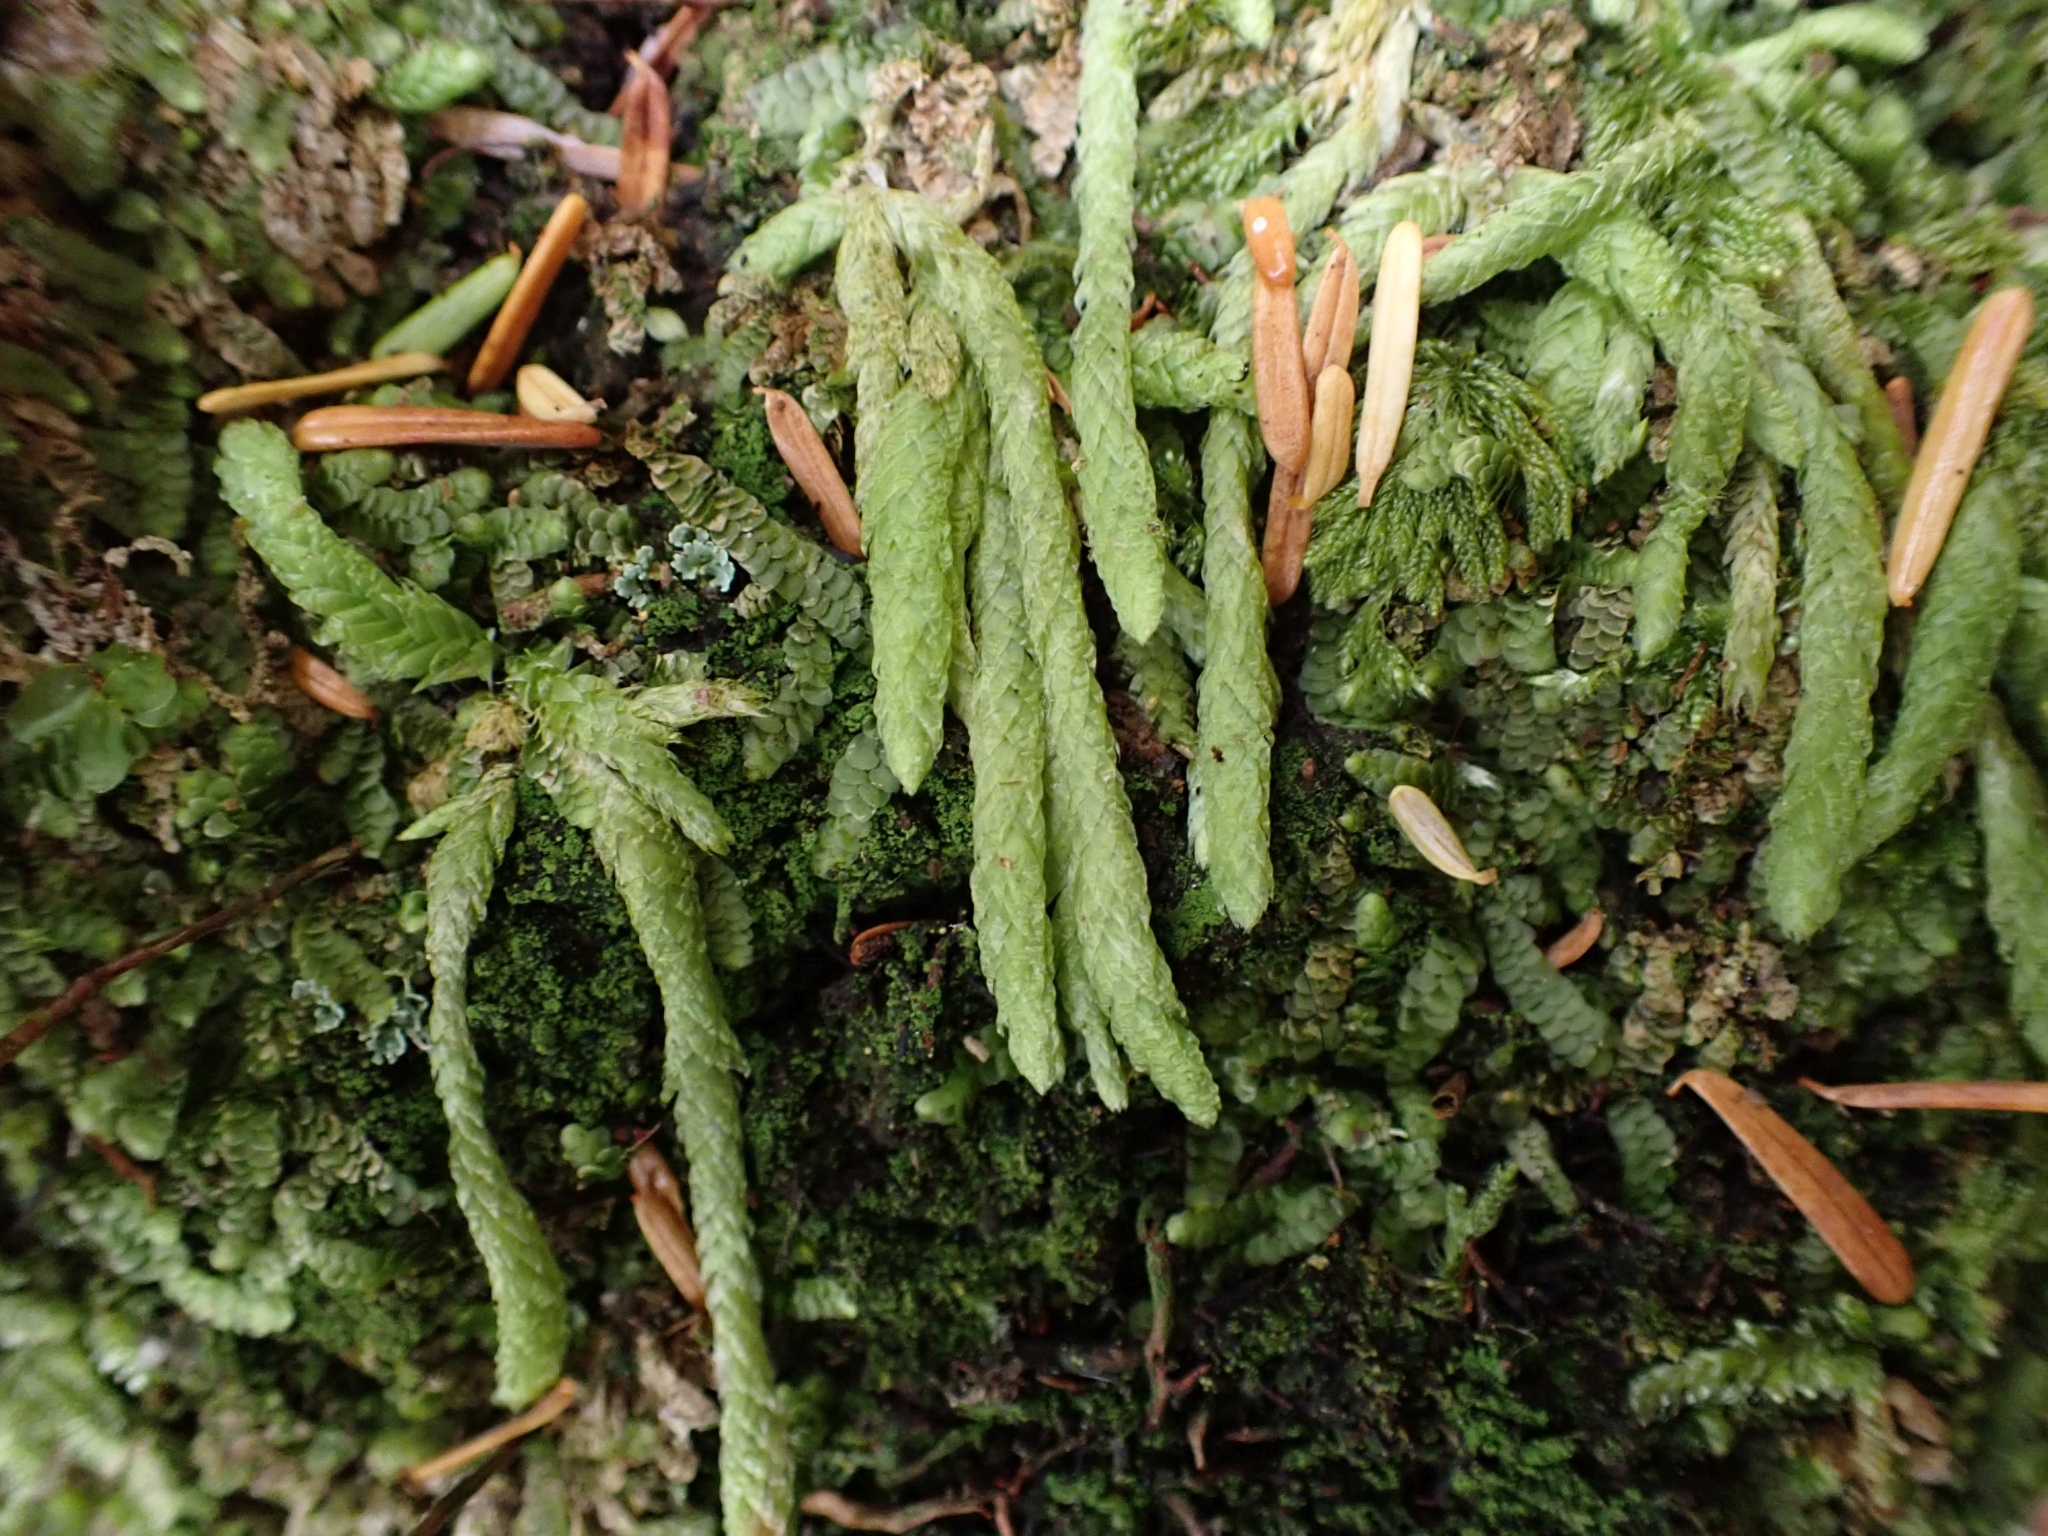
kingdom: Plantae
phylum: Bryophyta
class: Bryopsida
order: Hypnales
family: Plagiotheciaceae
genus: Plagiothecium
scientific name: Plagiothecium undulatum
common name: Waved silk-moss
